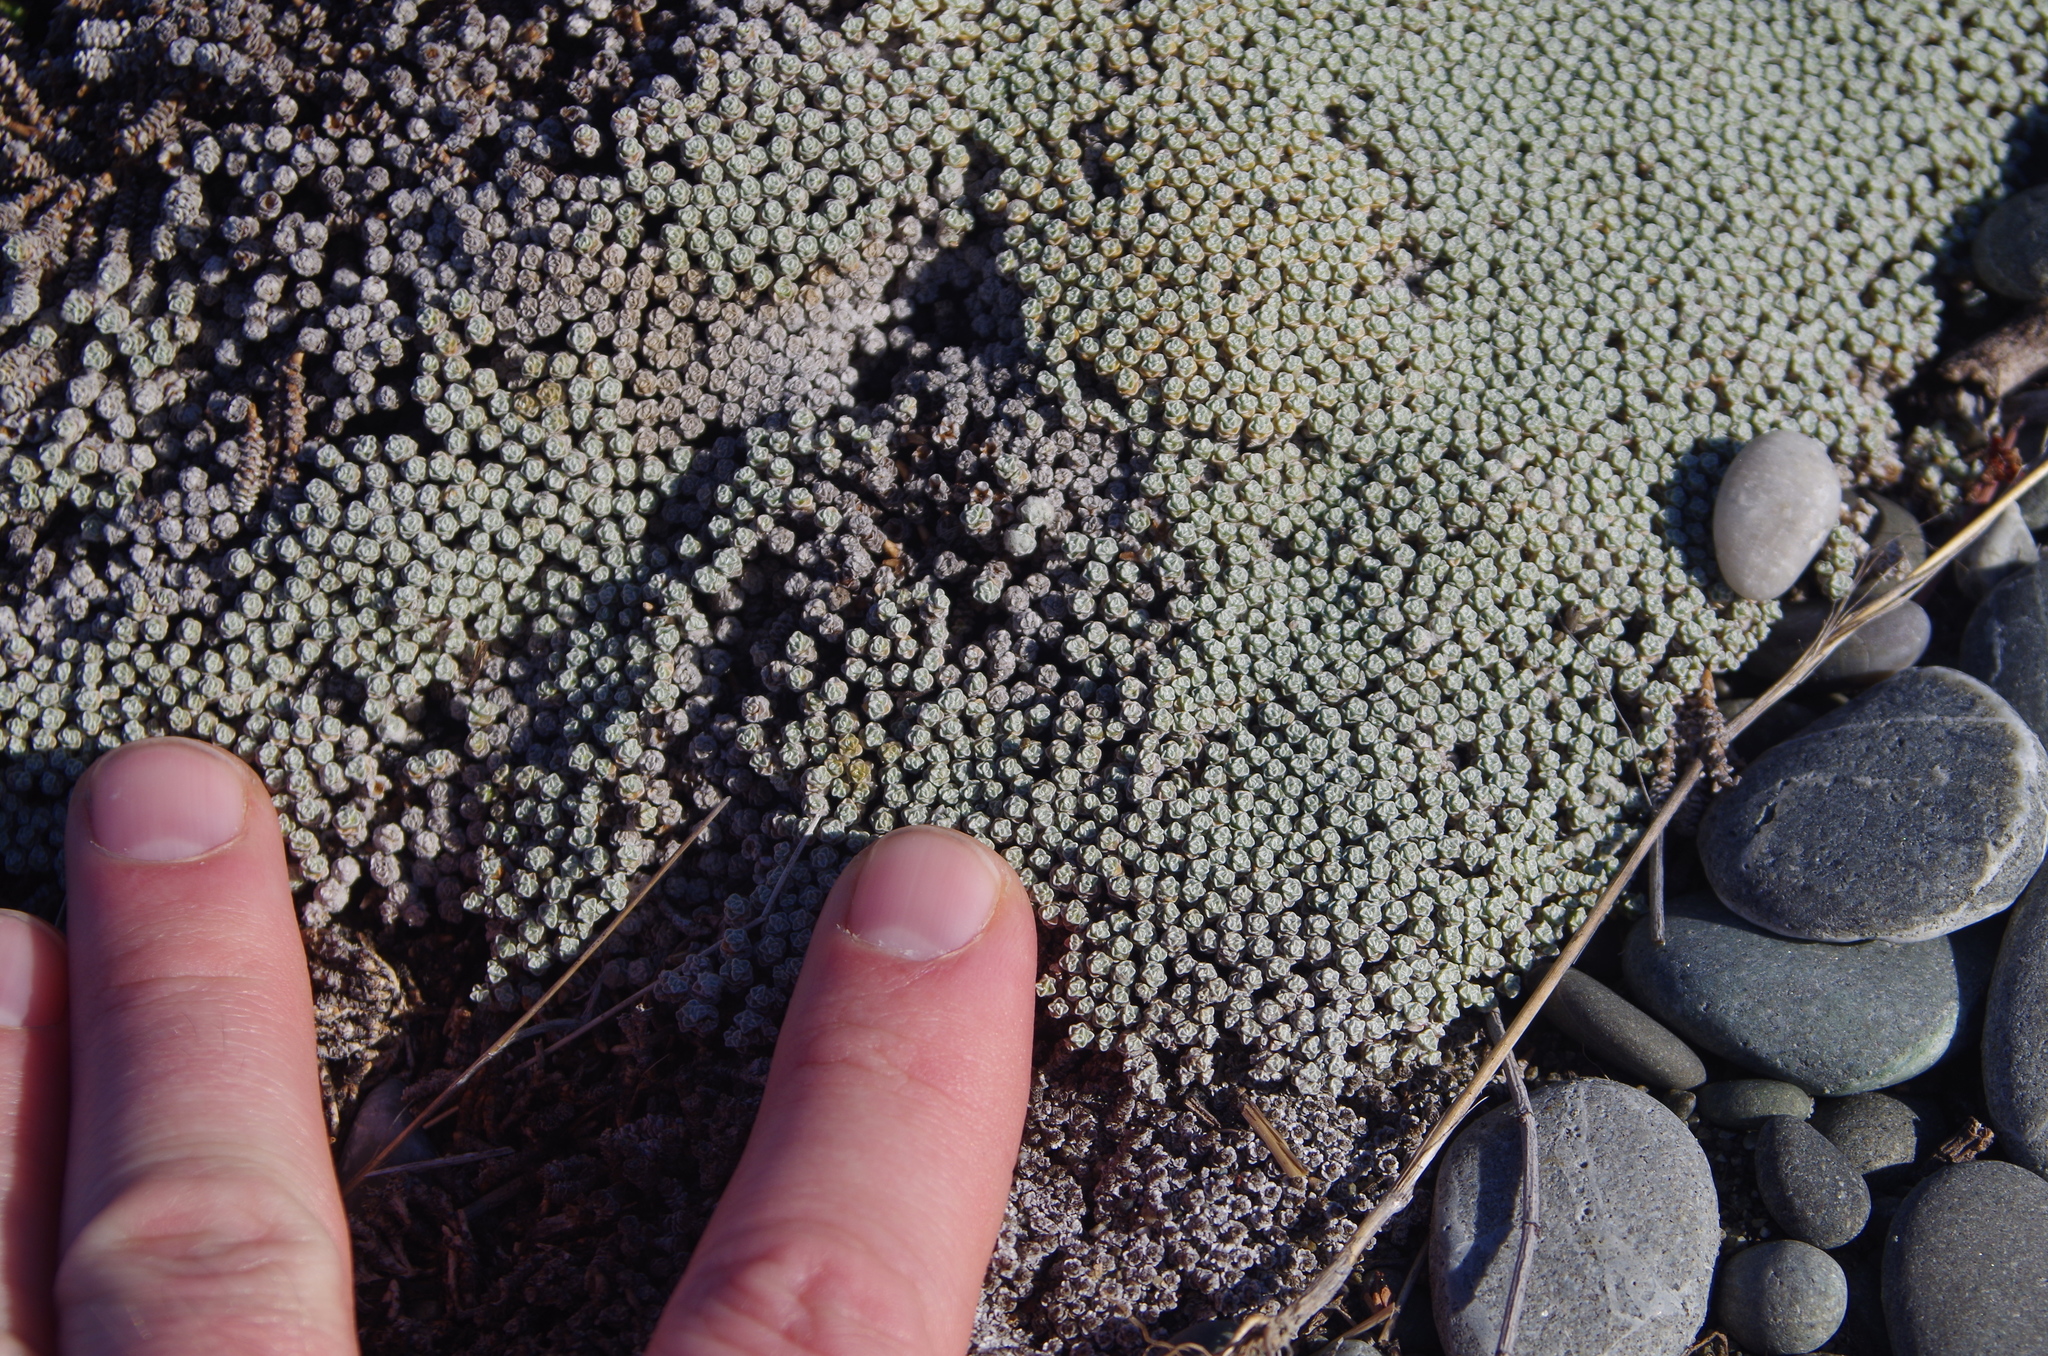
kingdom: Plantae
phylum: Tracheophyta
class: Magnoliopsida
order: Asterales
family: Asteraceae
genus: Raoulia
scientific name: Raoulia australis
